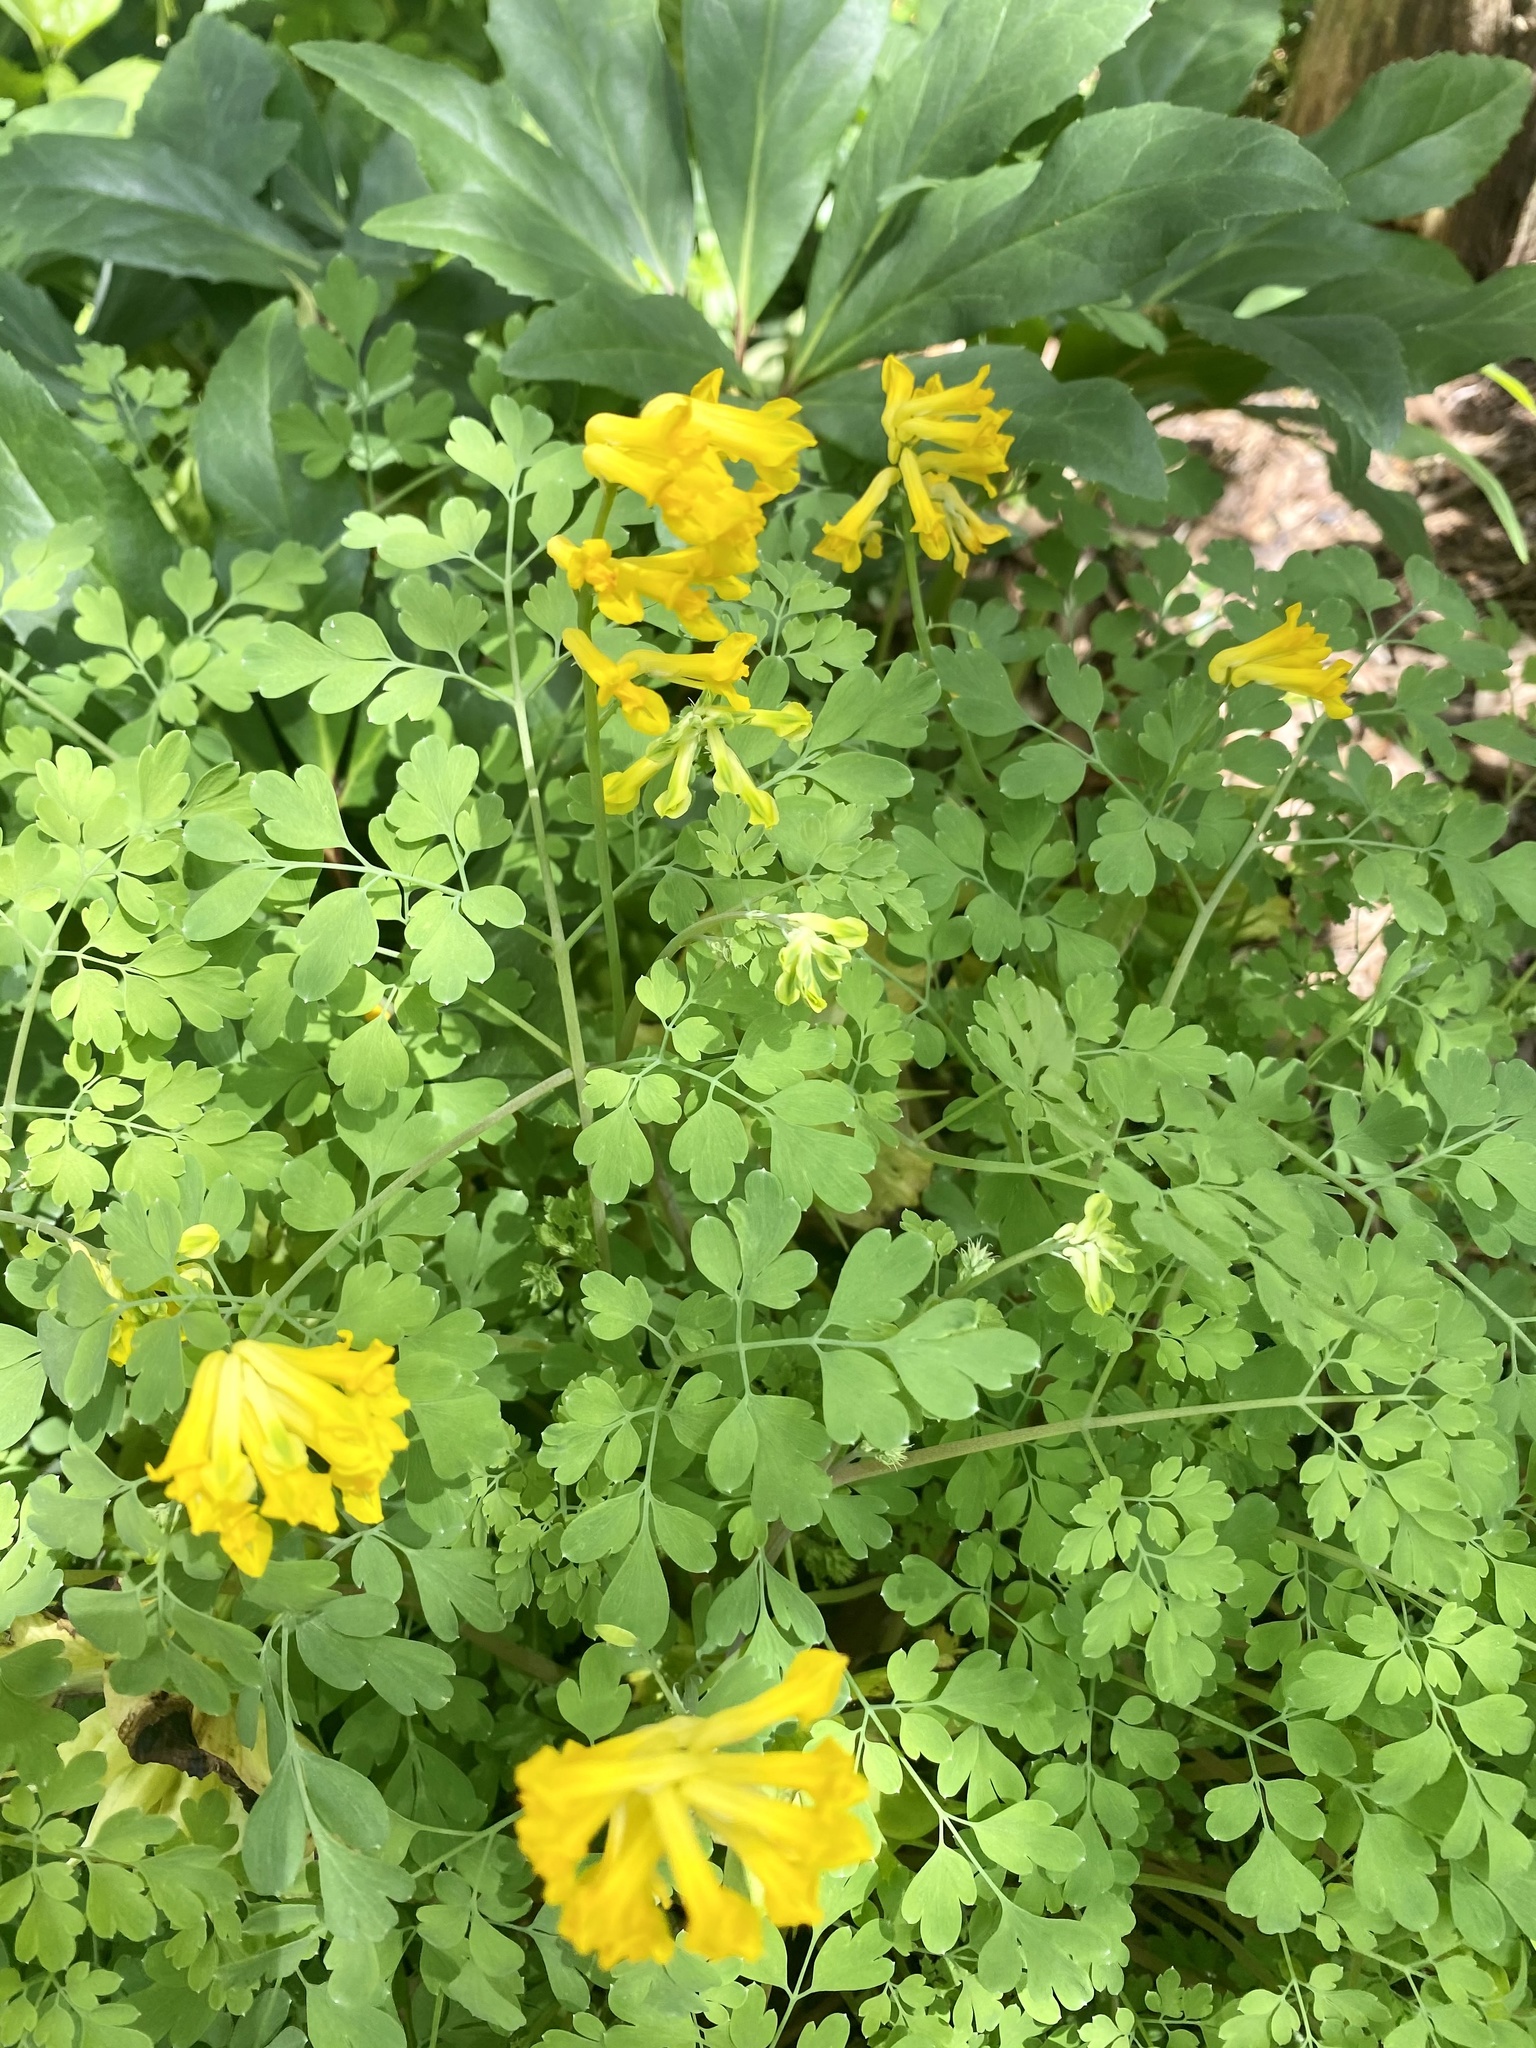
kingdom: Plantae
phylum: Tracheophyta
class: Magnoliopsida
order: Ranunculales
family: Papaveraceae
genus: Pseudofumaria
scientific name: Pseudofumaria lutea
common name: Yellow corydalis
